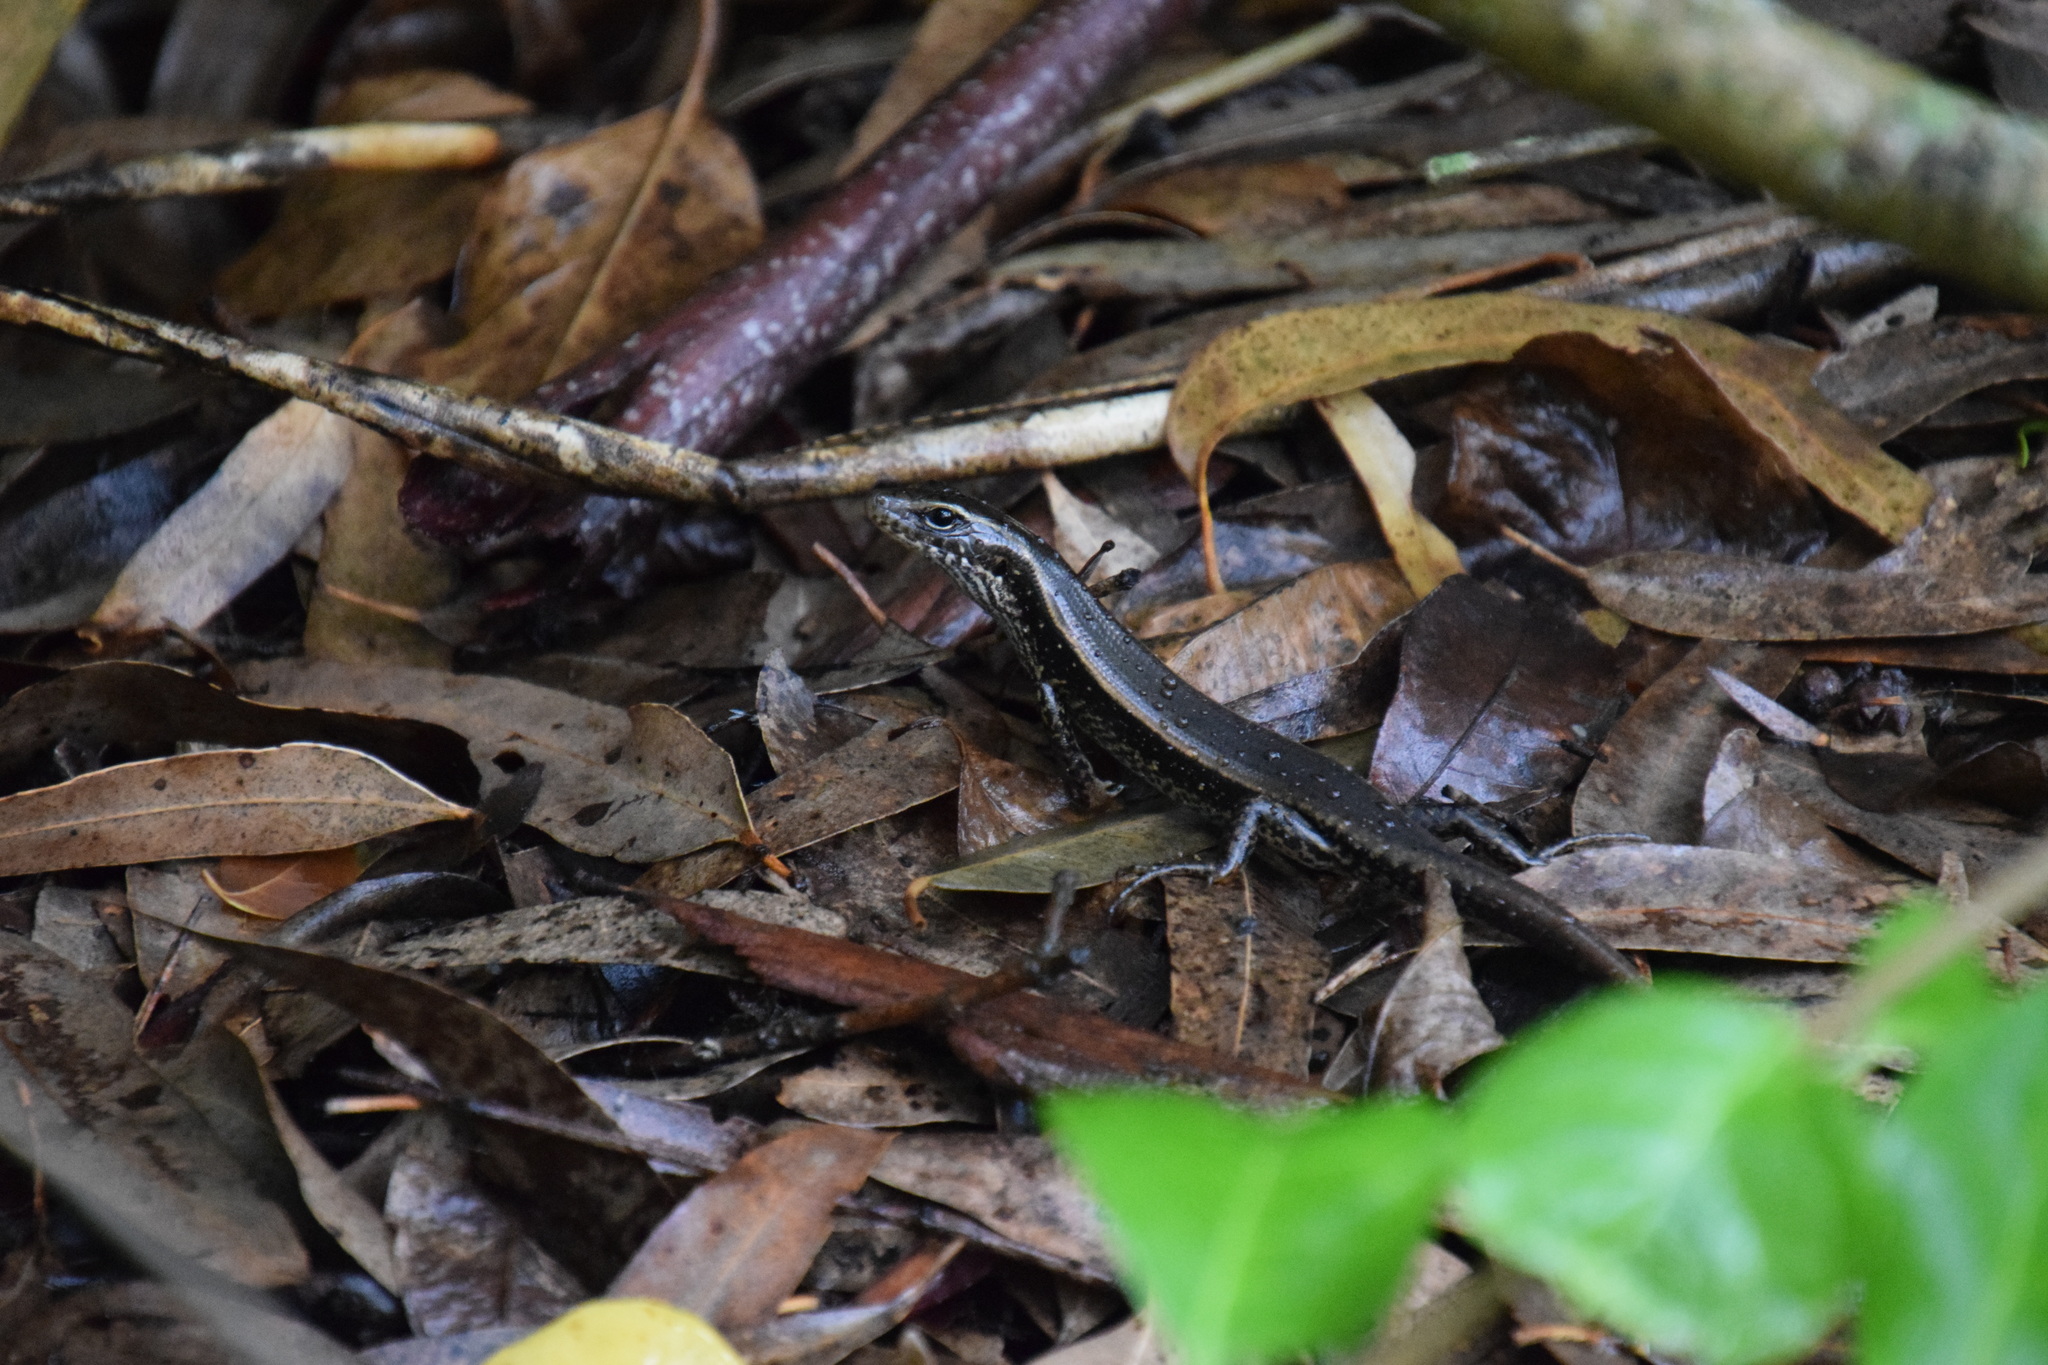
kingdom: Animalia
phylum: Chordata
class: Squamata
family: Scincidae
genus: Eulamprus
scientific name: Eulamprus quoyii
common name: Eastern water skink
